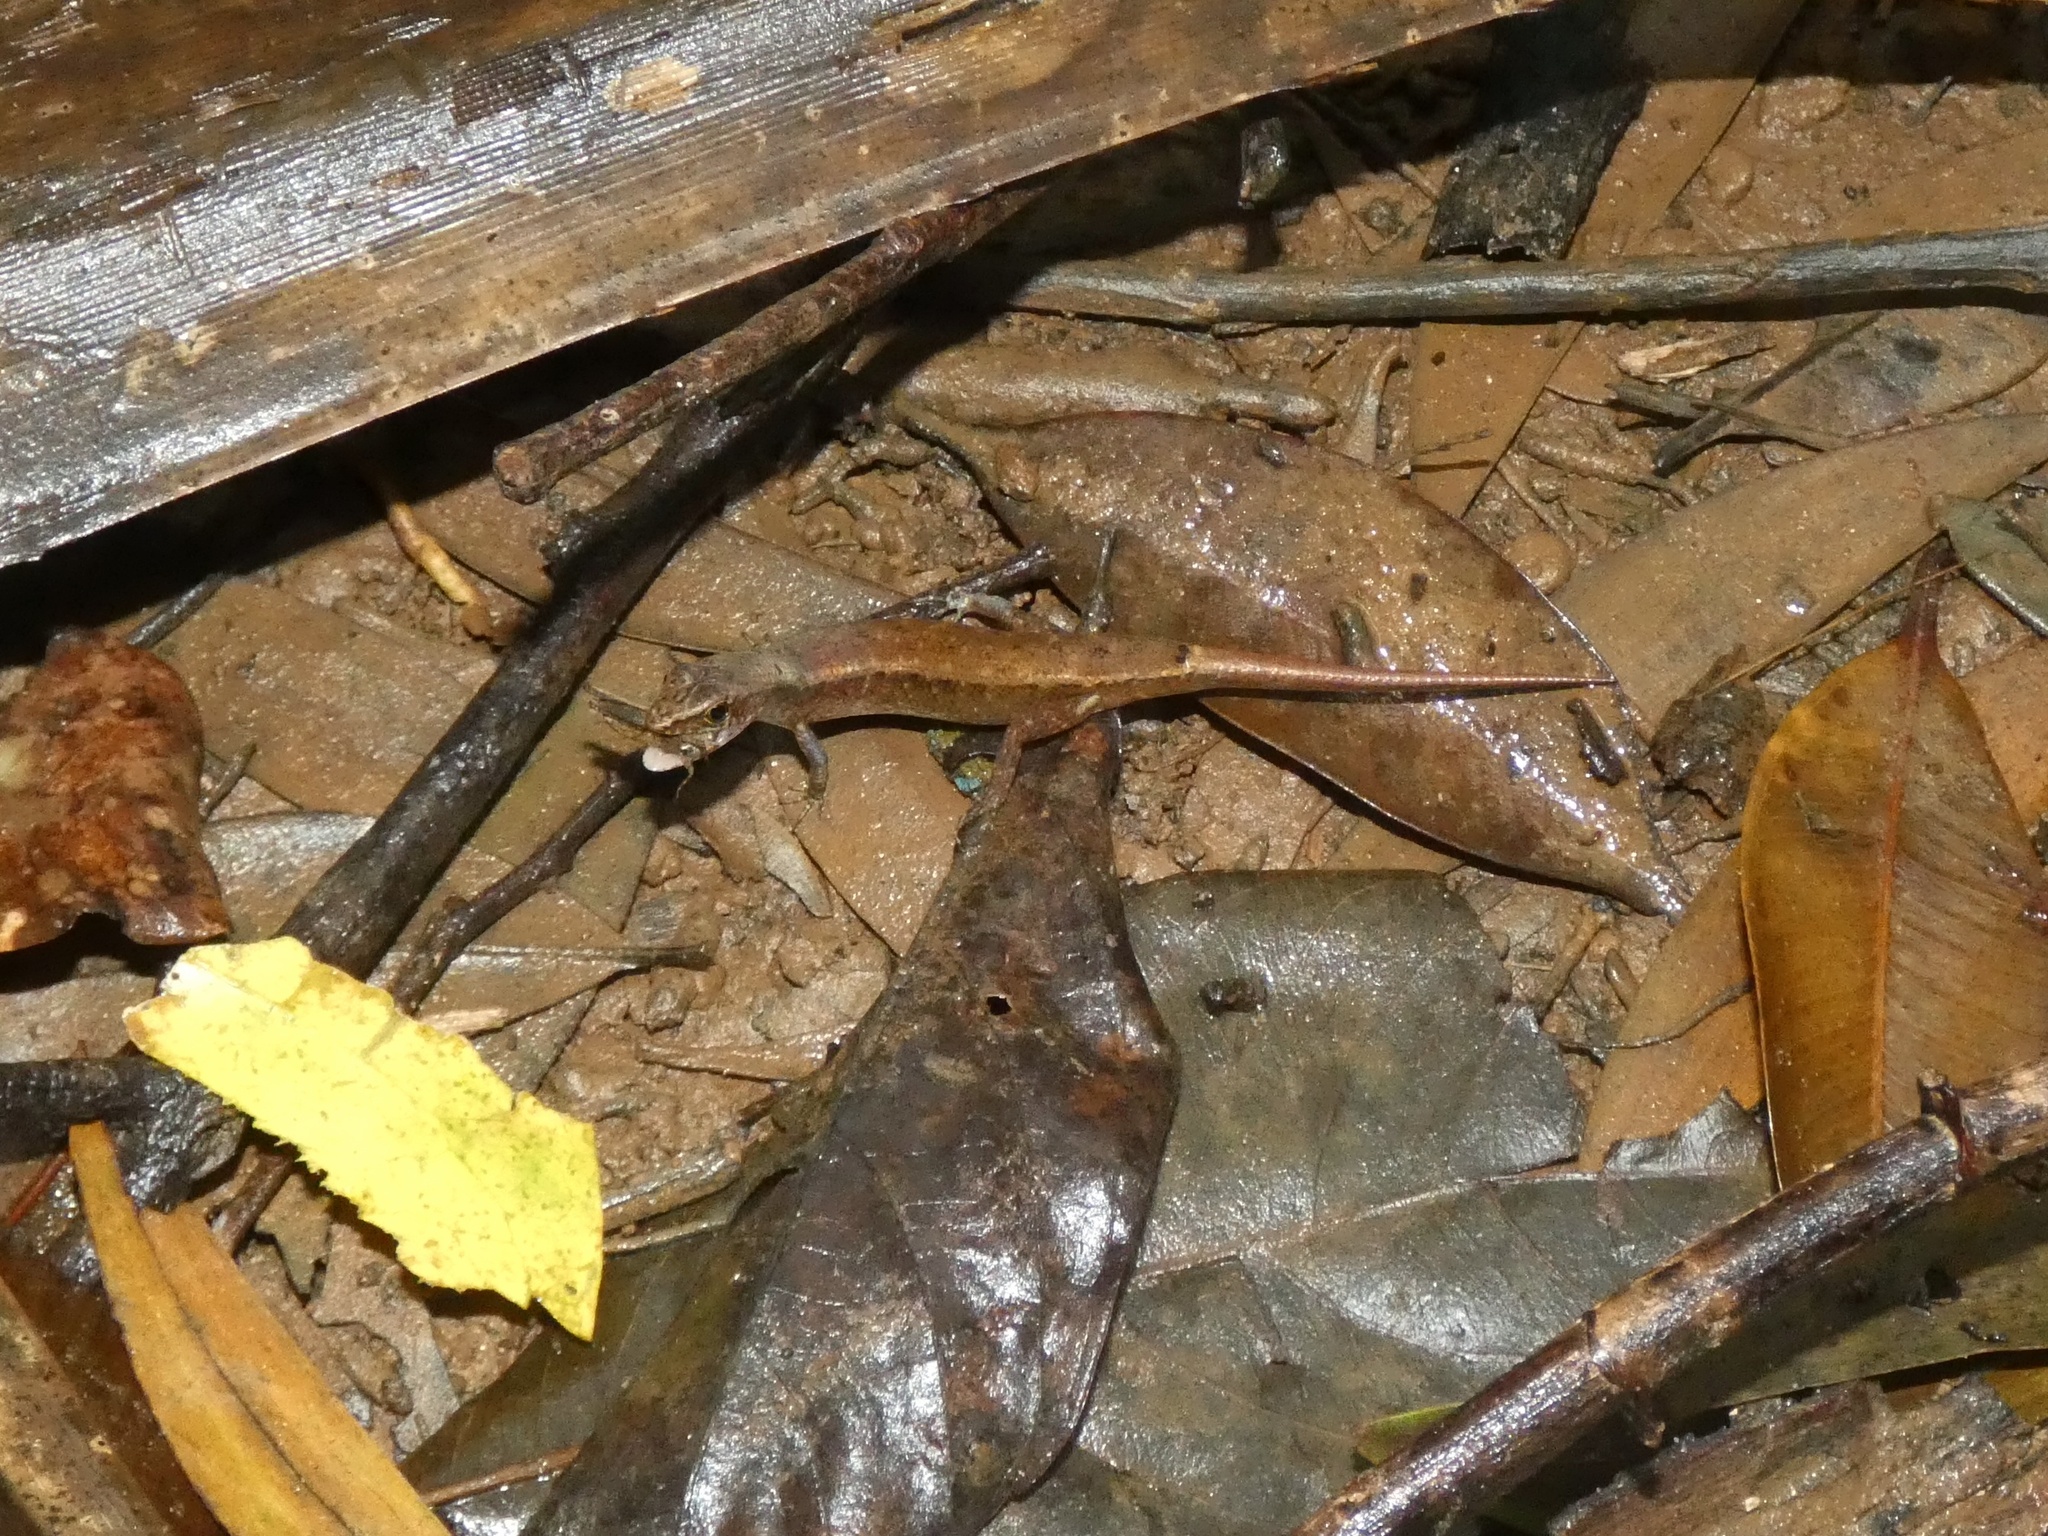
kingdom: Animalia
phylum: Chordata
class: Squamata
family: Scincidae
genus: Saproscincus
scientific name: Saproscincus basiliscus
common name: Pale-lipped shadeskink
